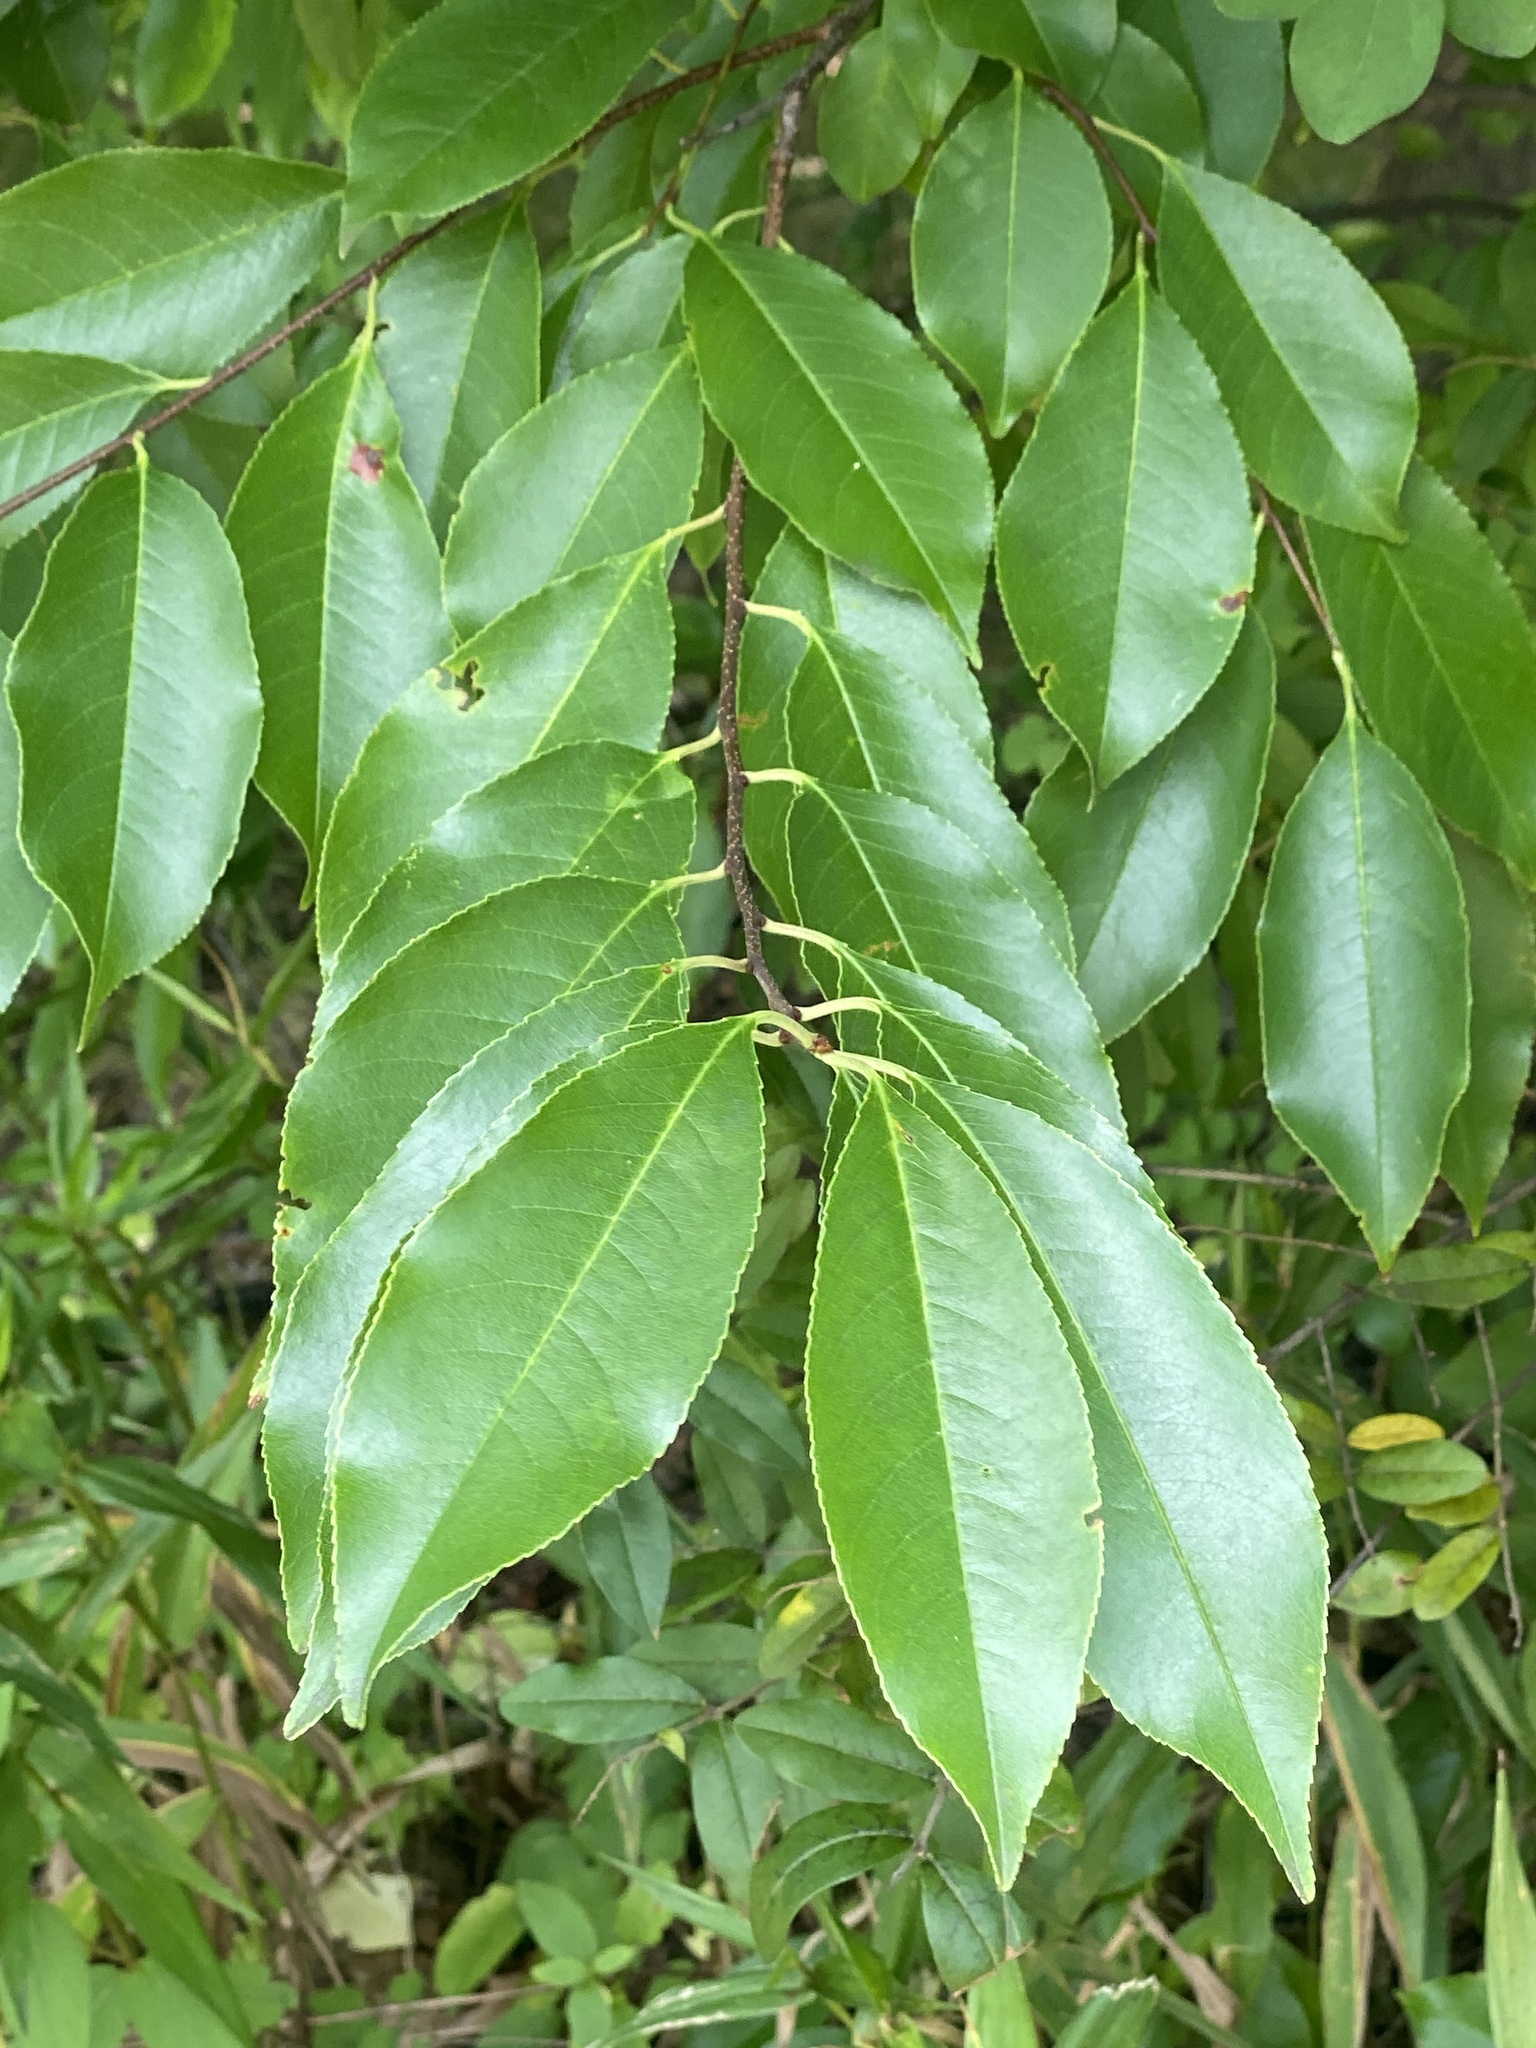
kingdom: Plantae
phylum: Tracheophyta
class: Magnoliopsida
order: Rosales
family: Rosaceae
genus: Prunus
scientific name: Prunus serotina
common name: Black cherry
